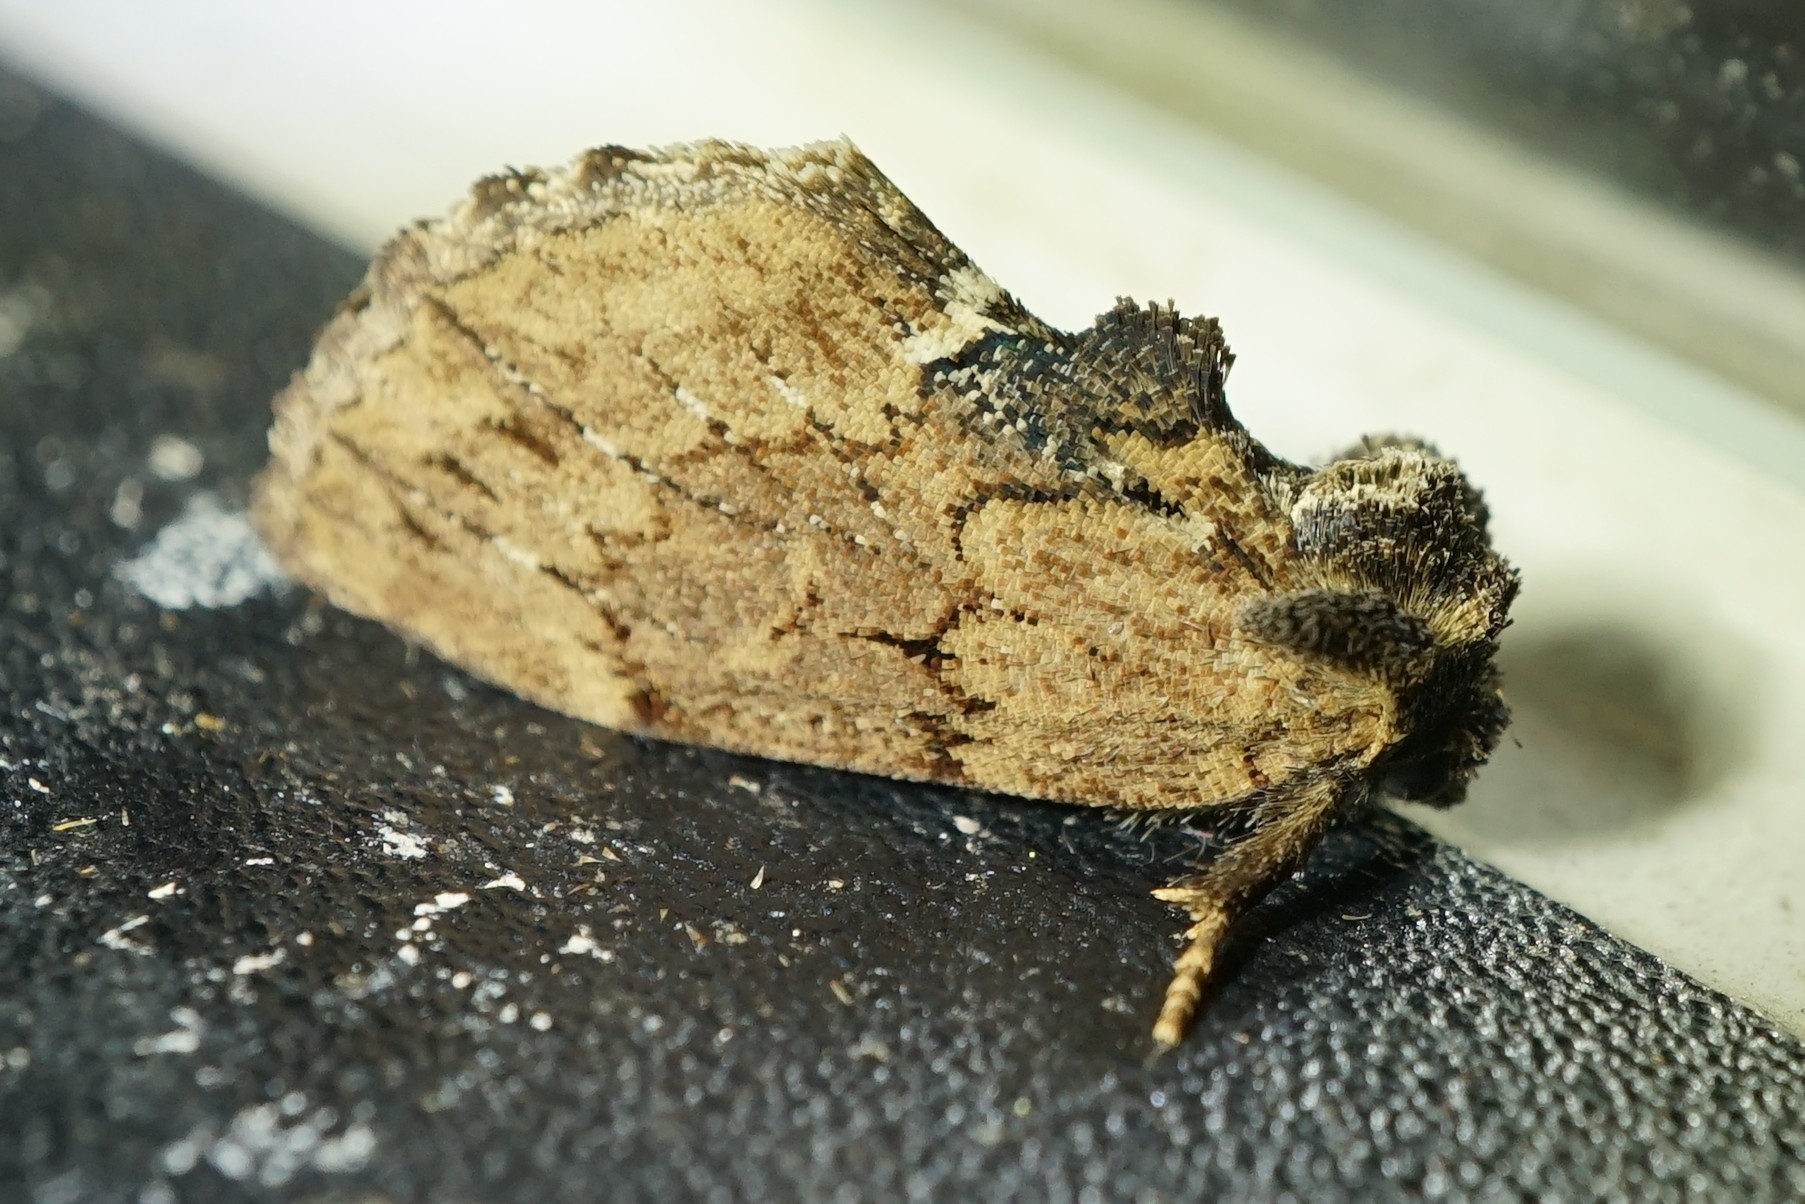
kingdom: Animalia
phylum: Arthropoda
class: Insecta
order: Lepidoptera
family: Notodontidae
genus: Lophontosia
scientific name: Lophontosia
